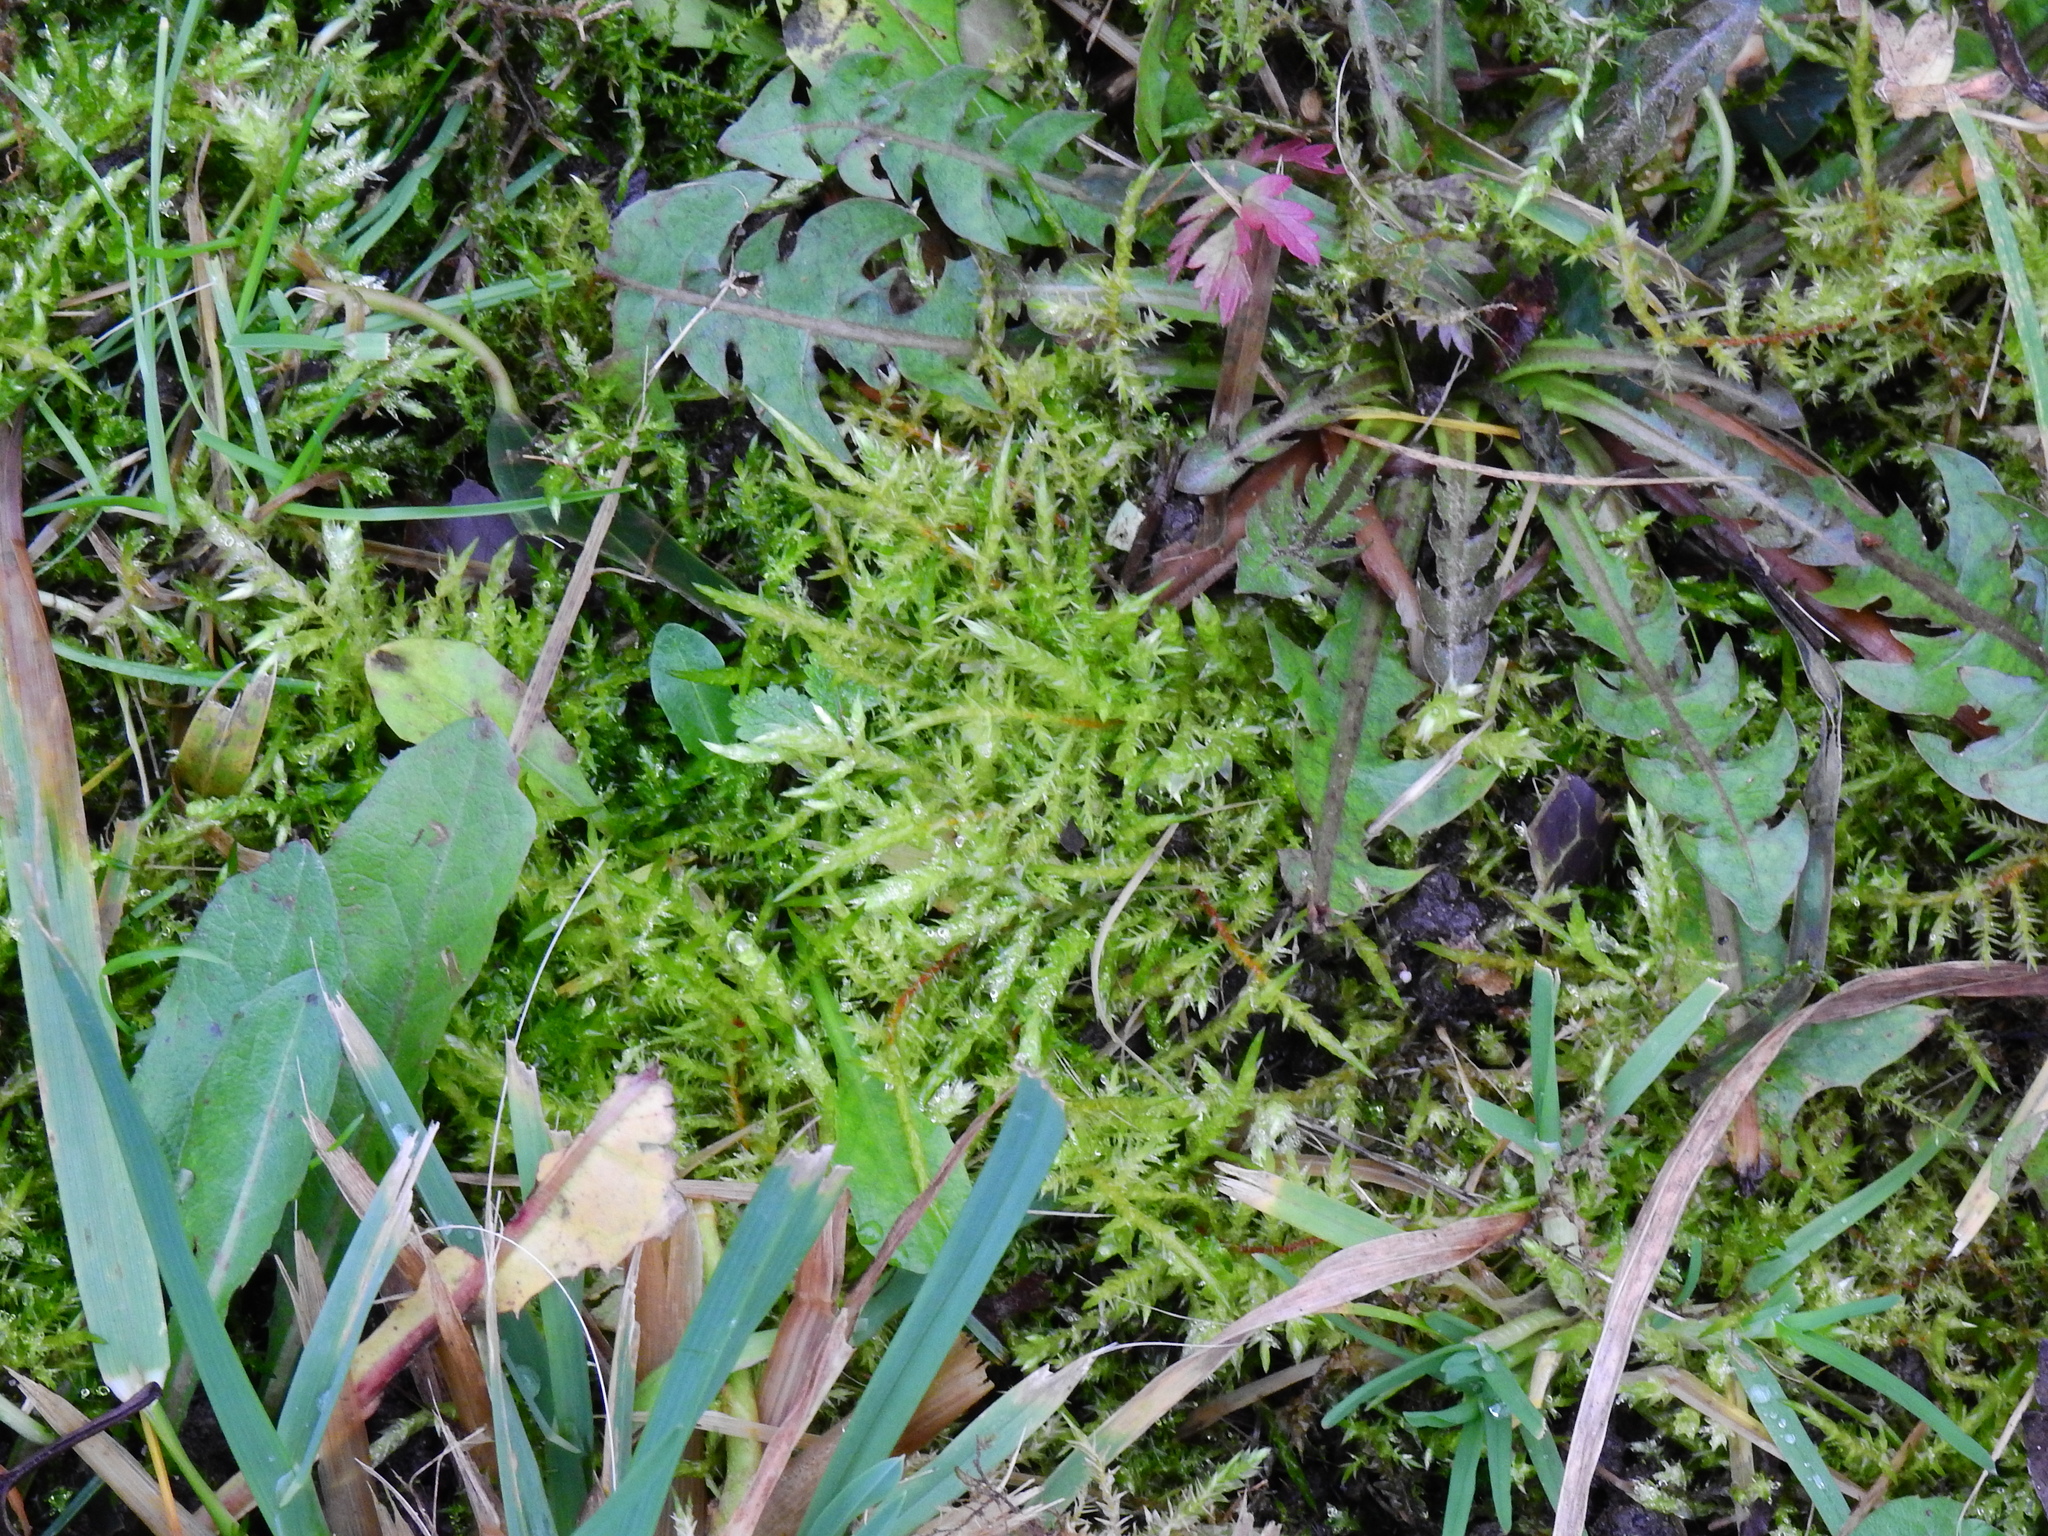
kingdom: Plantae
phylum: Bryophyta
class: Bryopsida
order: Hypnales
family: Pylaisiaceae
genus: Calliergonella
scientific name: Calliergonella cuspidata
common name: Common large wetland moss
